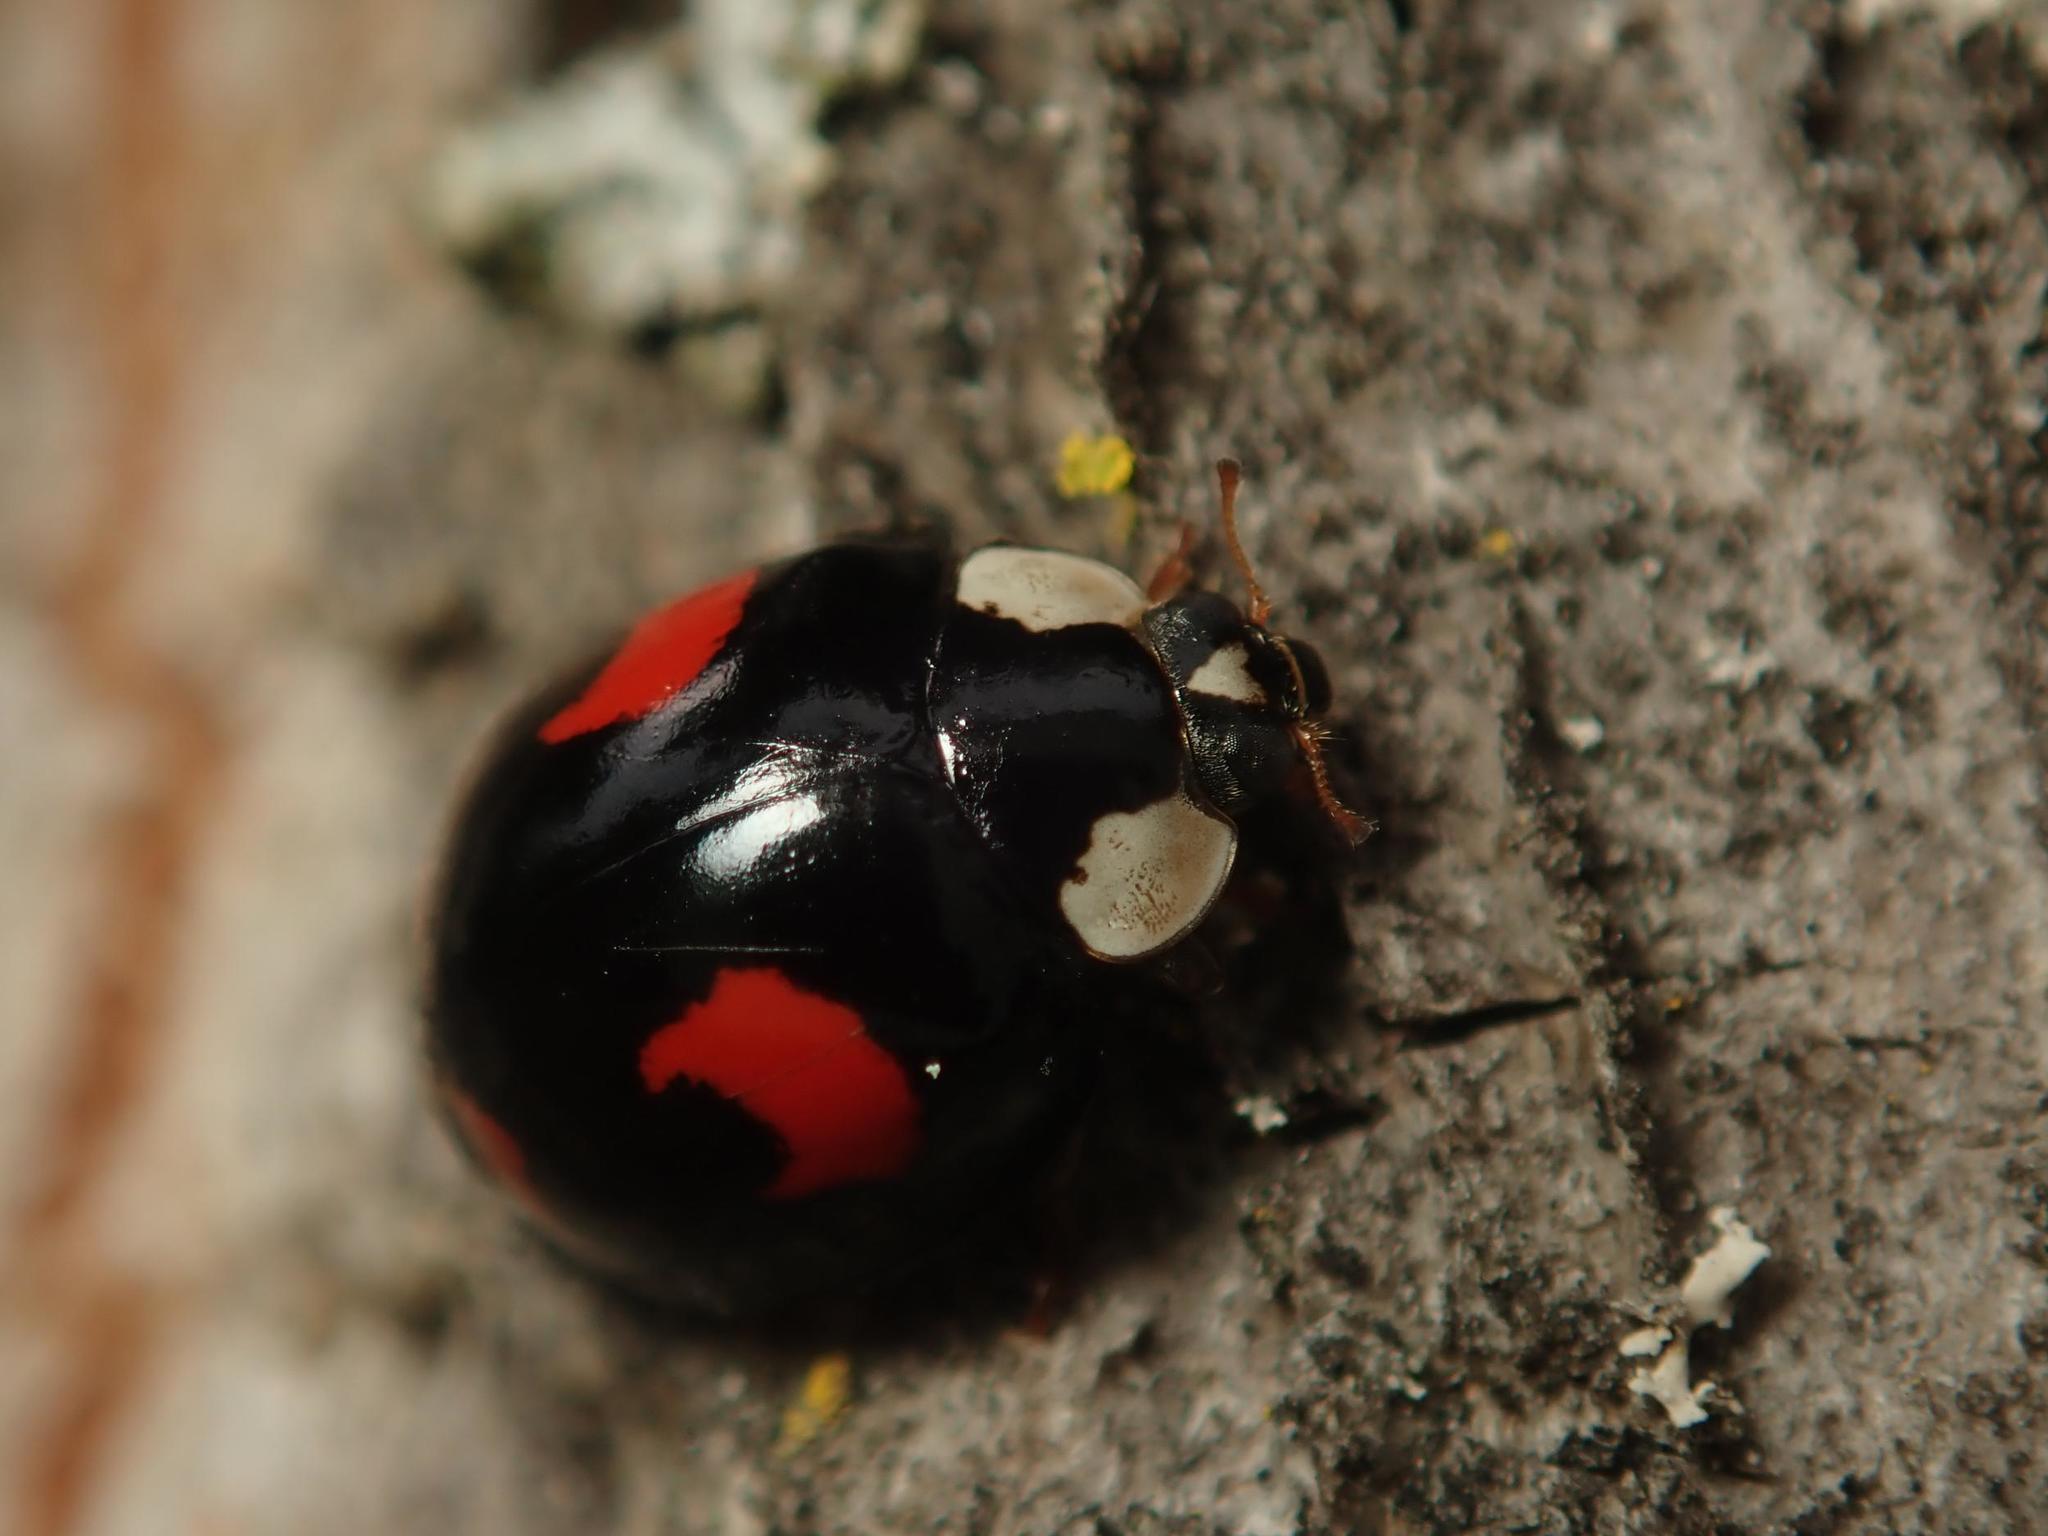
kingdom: Animalia
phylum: Arthropoda
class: Insecta
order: Coleoptera
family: Coccinellidae
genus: Harmonia
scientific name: Harmonia axyridis
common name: Harlequin ladybird
